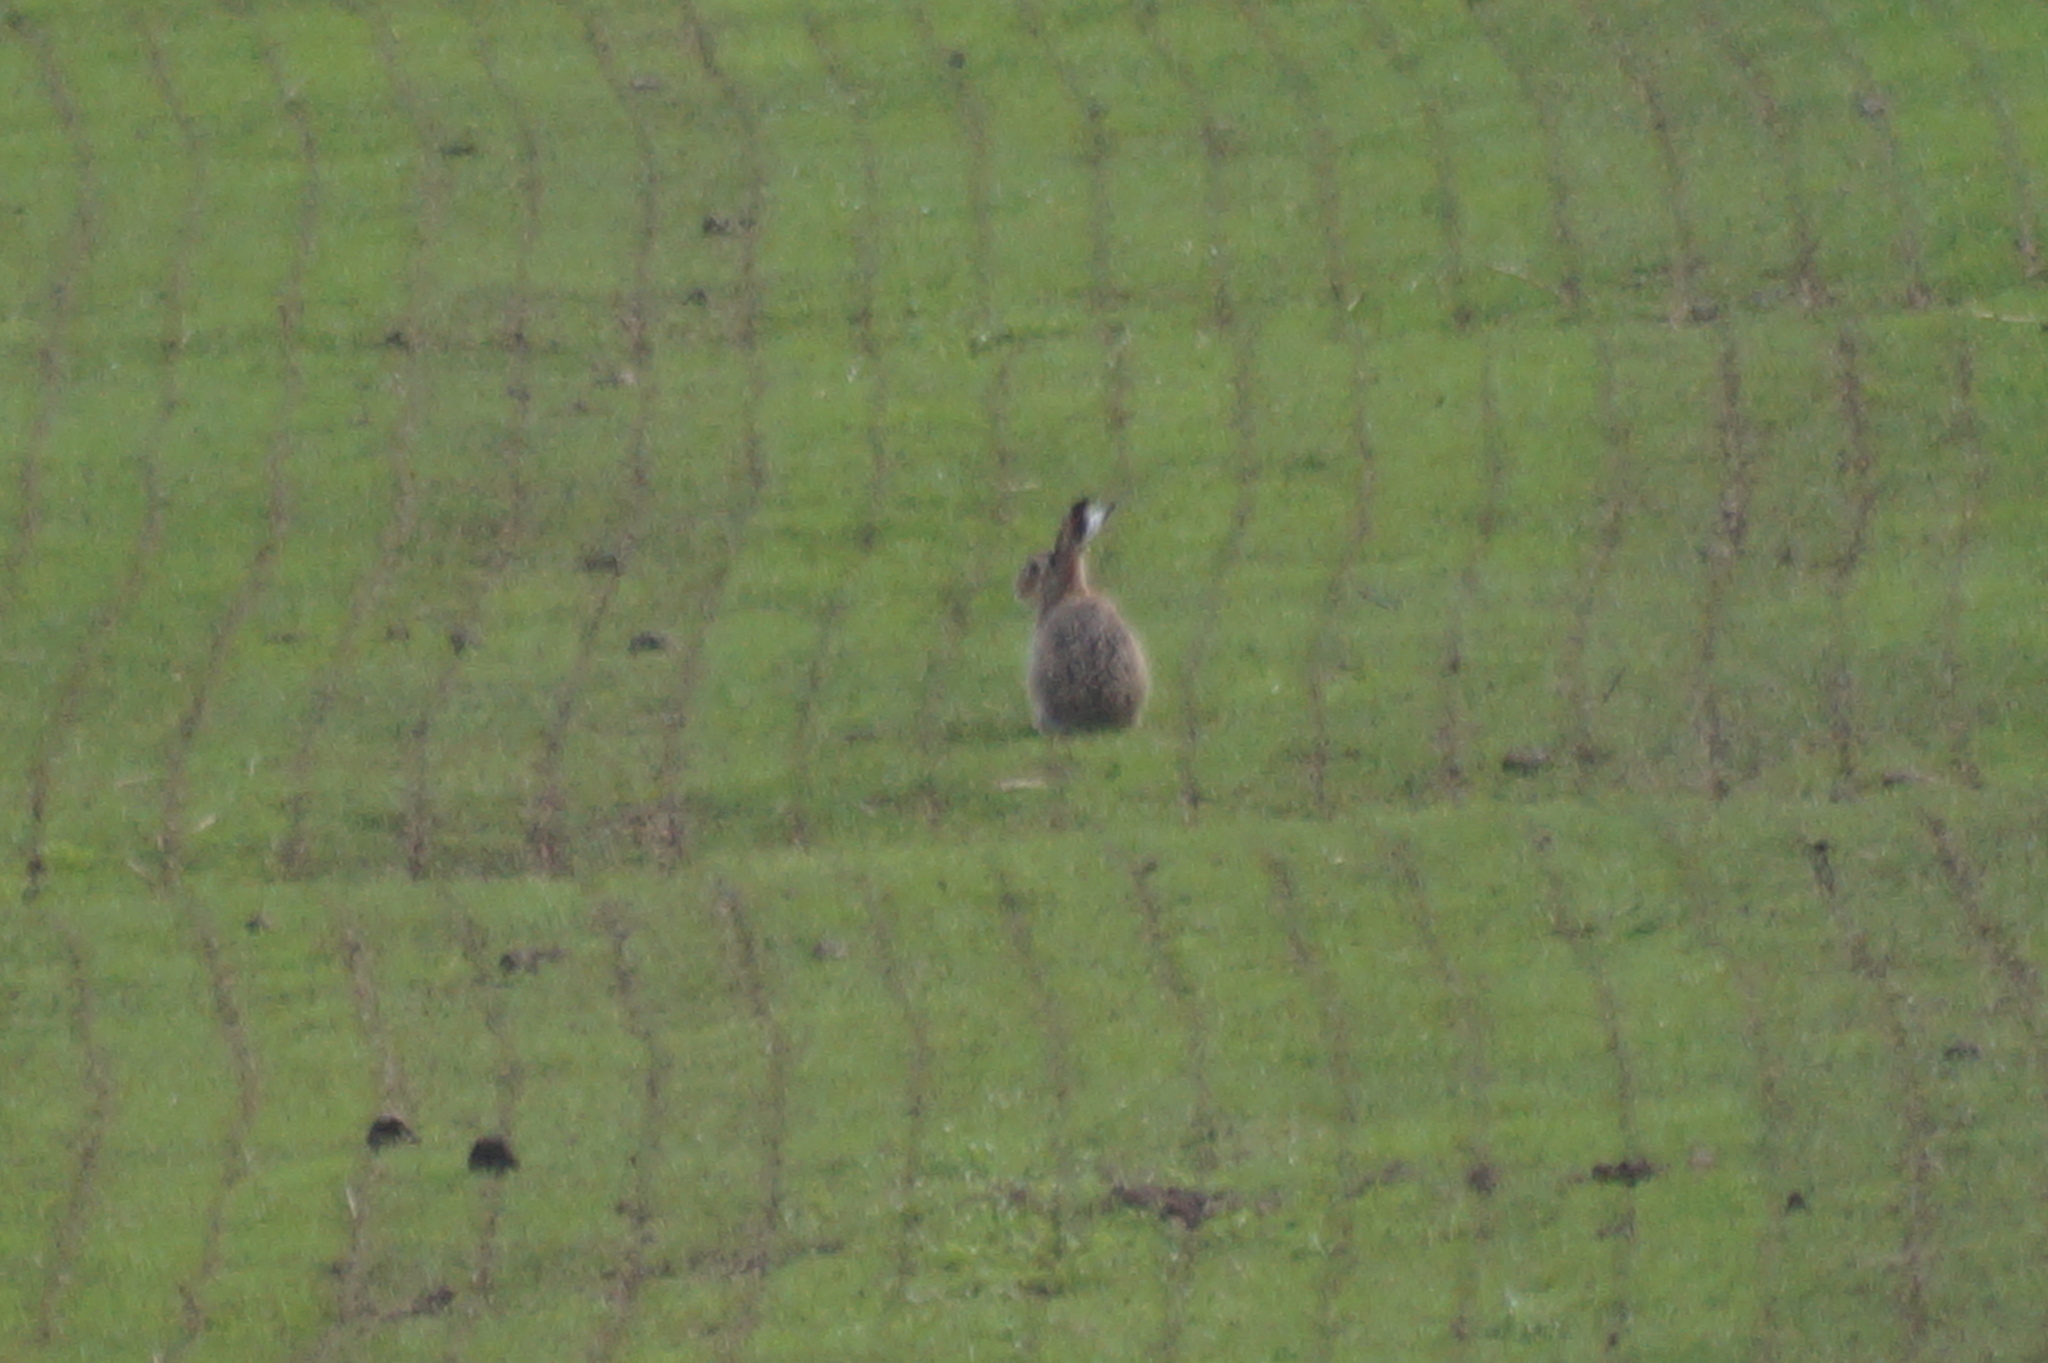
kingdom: Animalia
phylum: Chordata
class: Mammalia
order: Lagomorpha
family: Leporidae
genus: Lepus
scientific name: Lepus europaeus
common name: European hare
